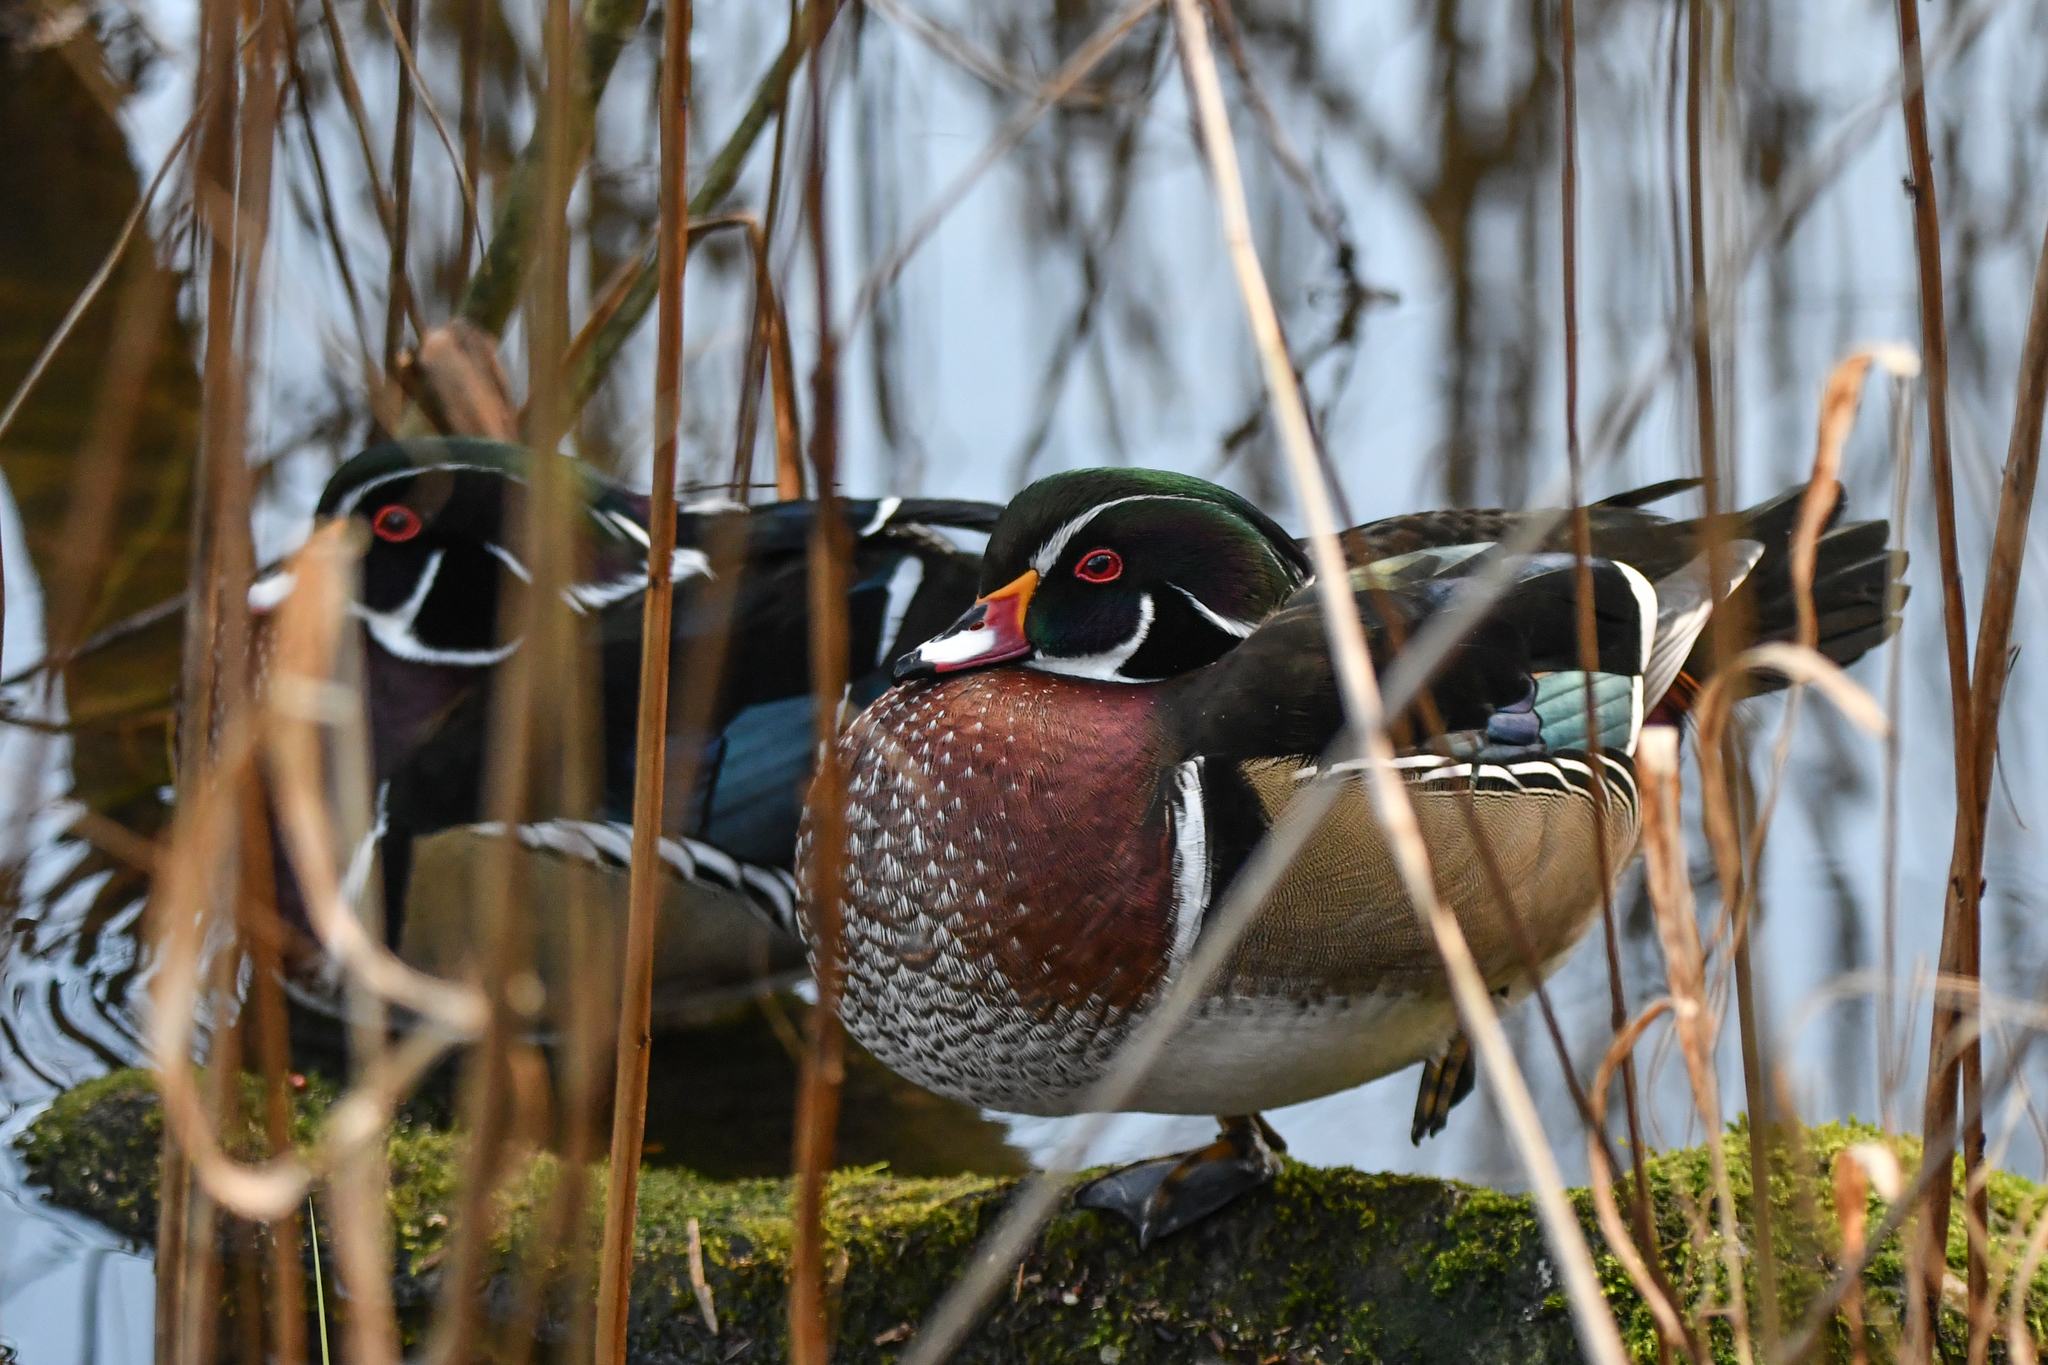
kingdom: Animalia
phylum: Chordata
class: Aves
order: Anseriformes
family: Anatidae
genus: Aix
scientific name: Aix sponsa
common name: Wood duck
